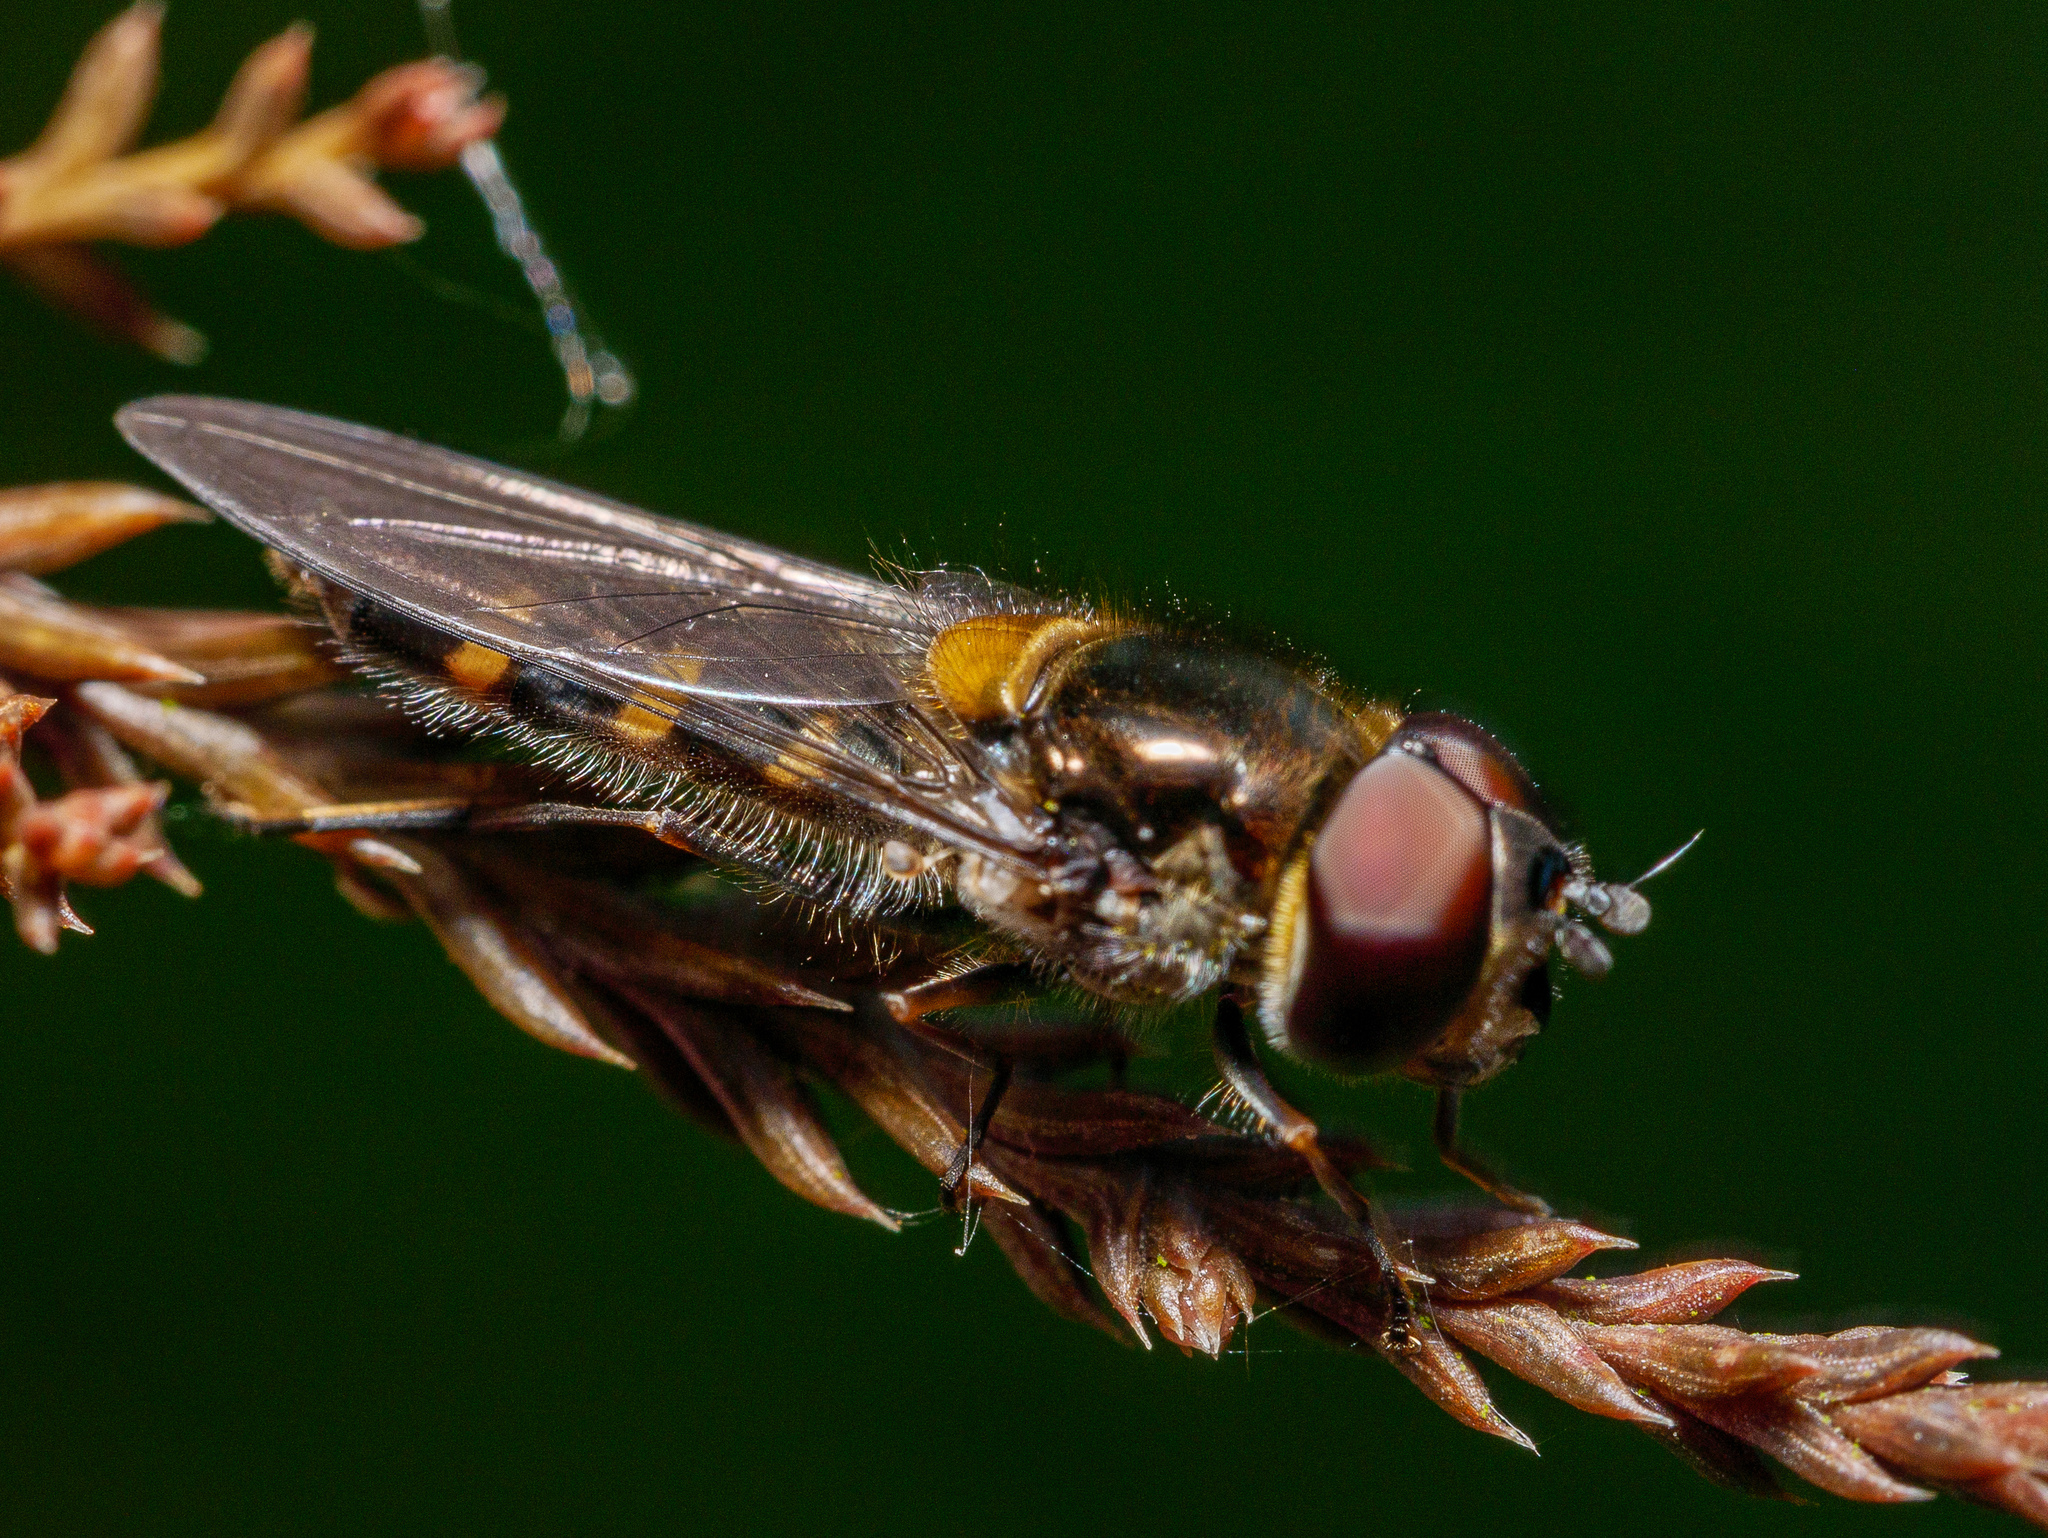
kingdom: Animalia
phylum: Arthropoda
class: Insecta
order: Diptera
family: Syrphidae
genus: Melangyna
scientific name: Melangyna novaezelandiae
